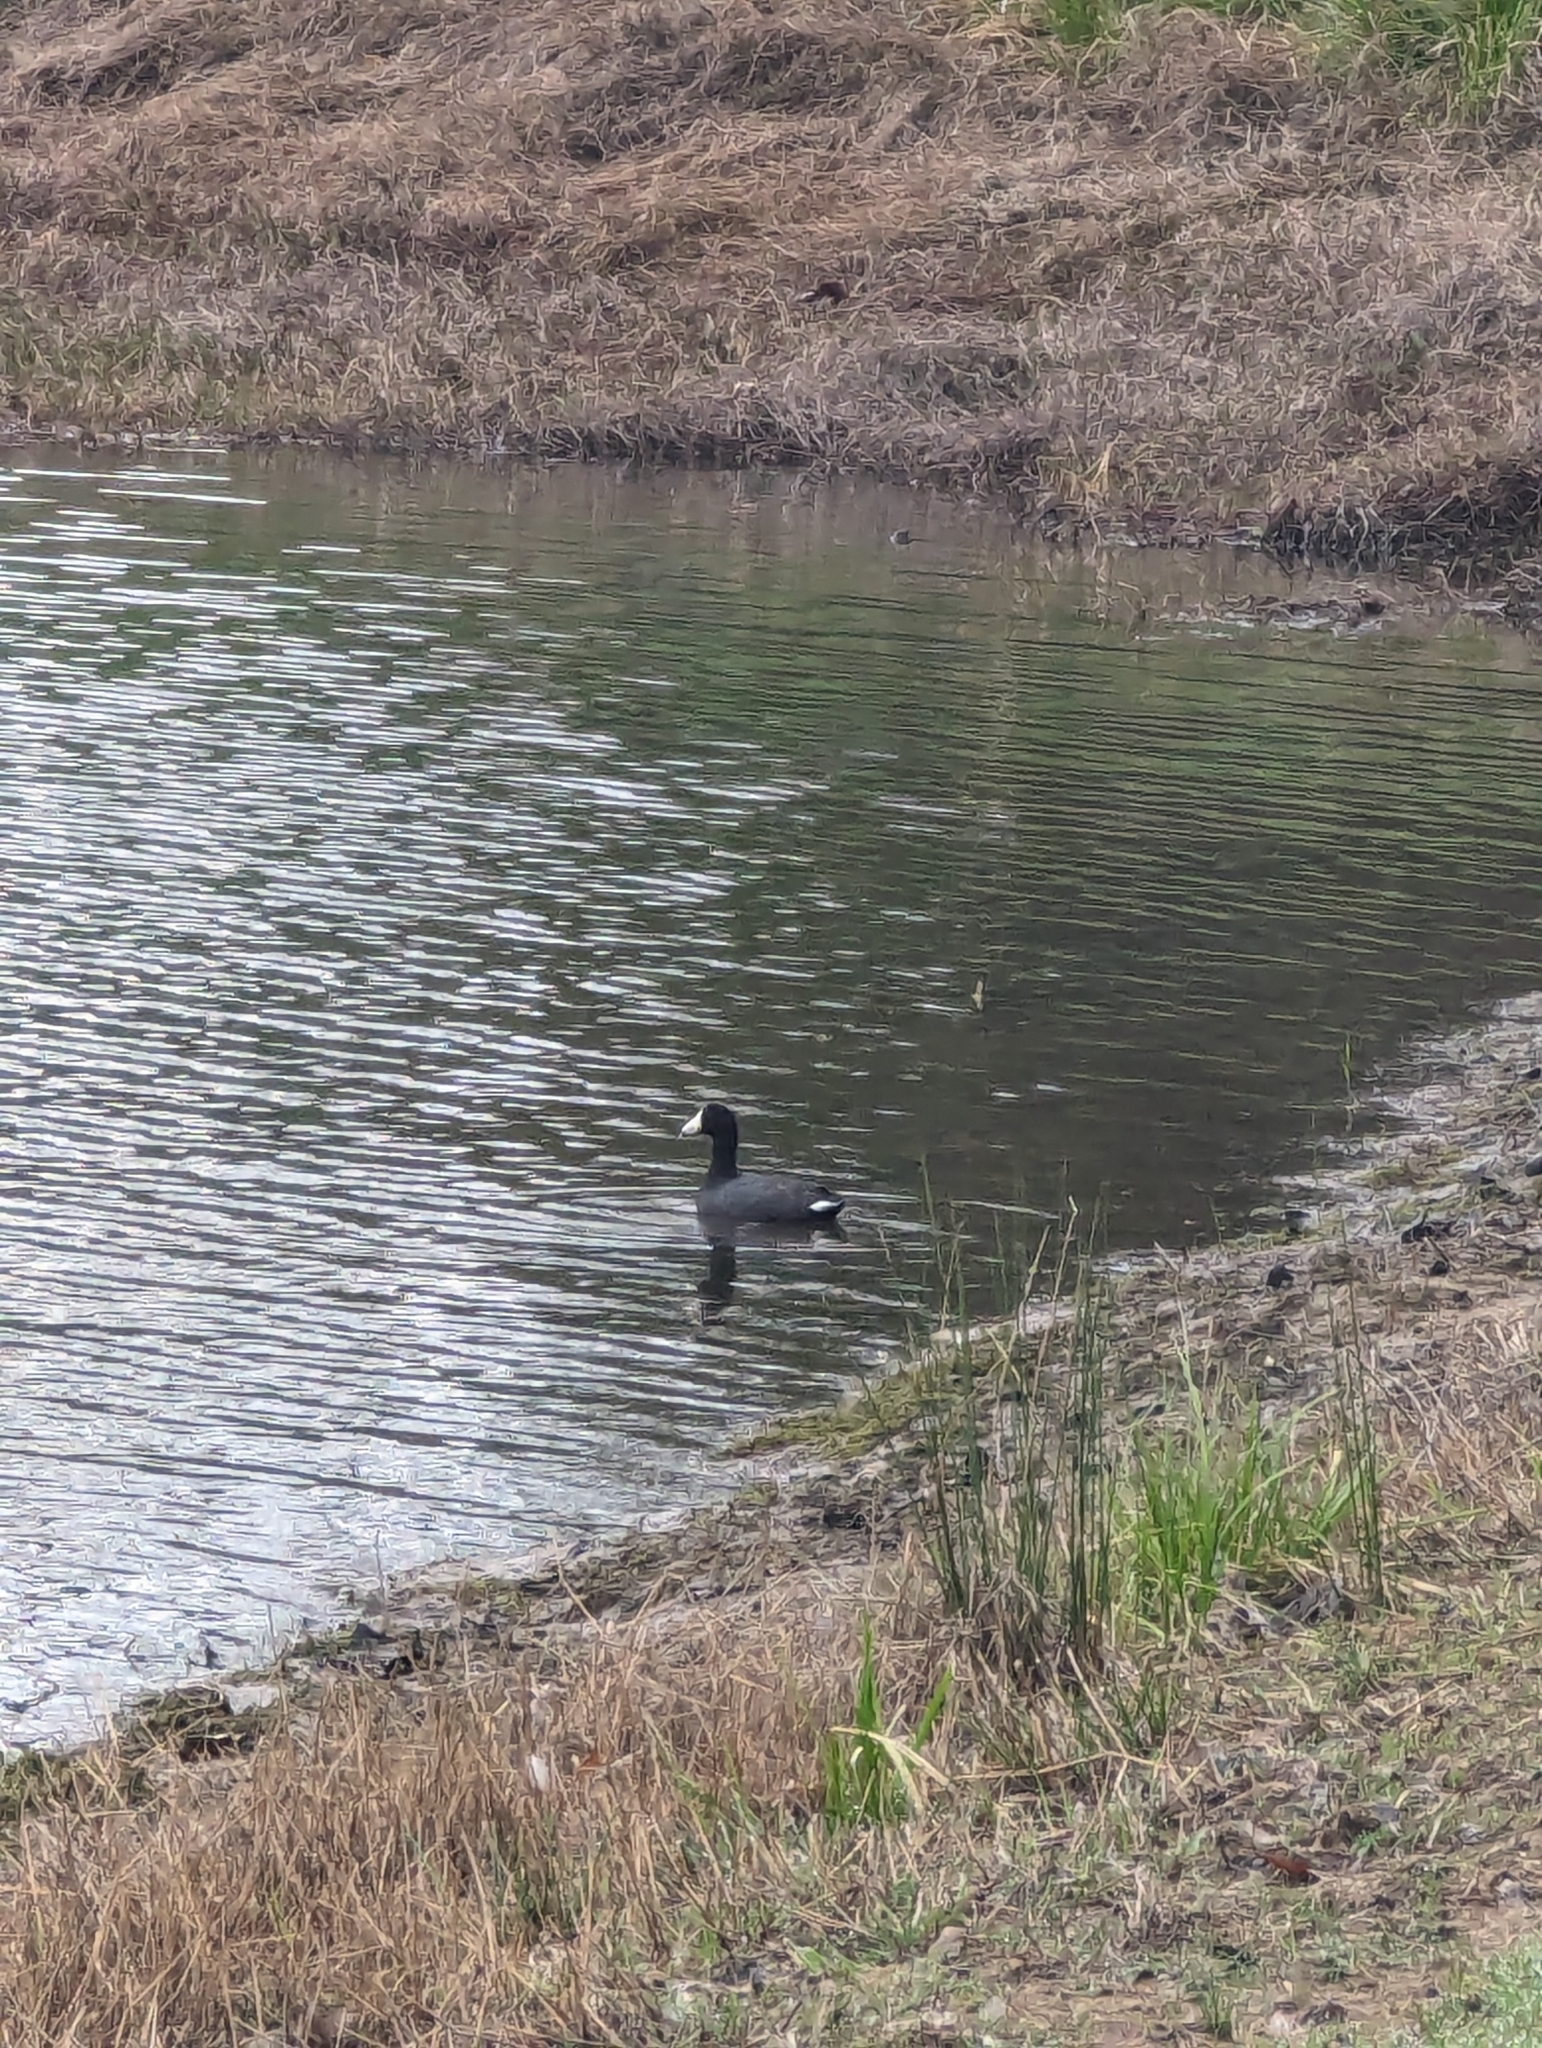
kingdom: Animalia
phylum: Chordata
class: Aves
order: Gruiformes
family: Rallidae
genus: Fulica
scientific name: Fulica americana
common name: American coot
